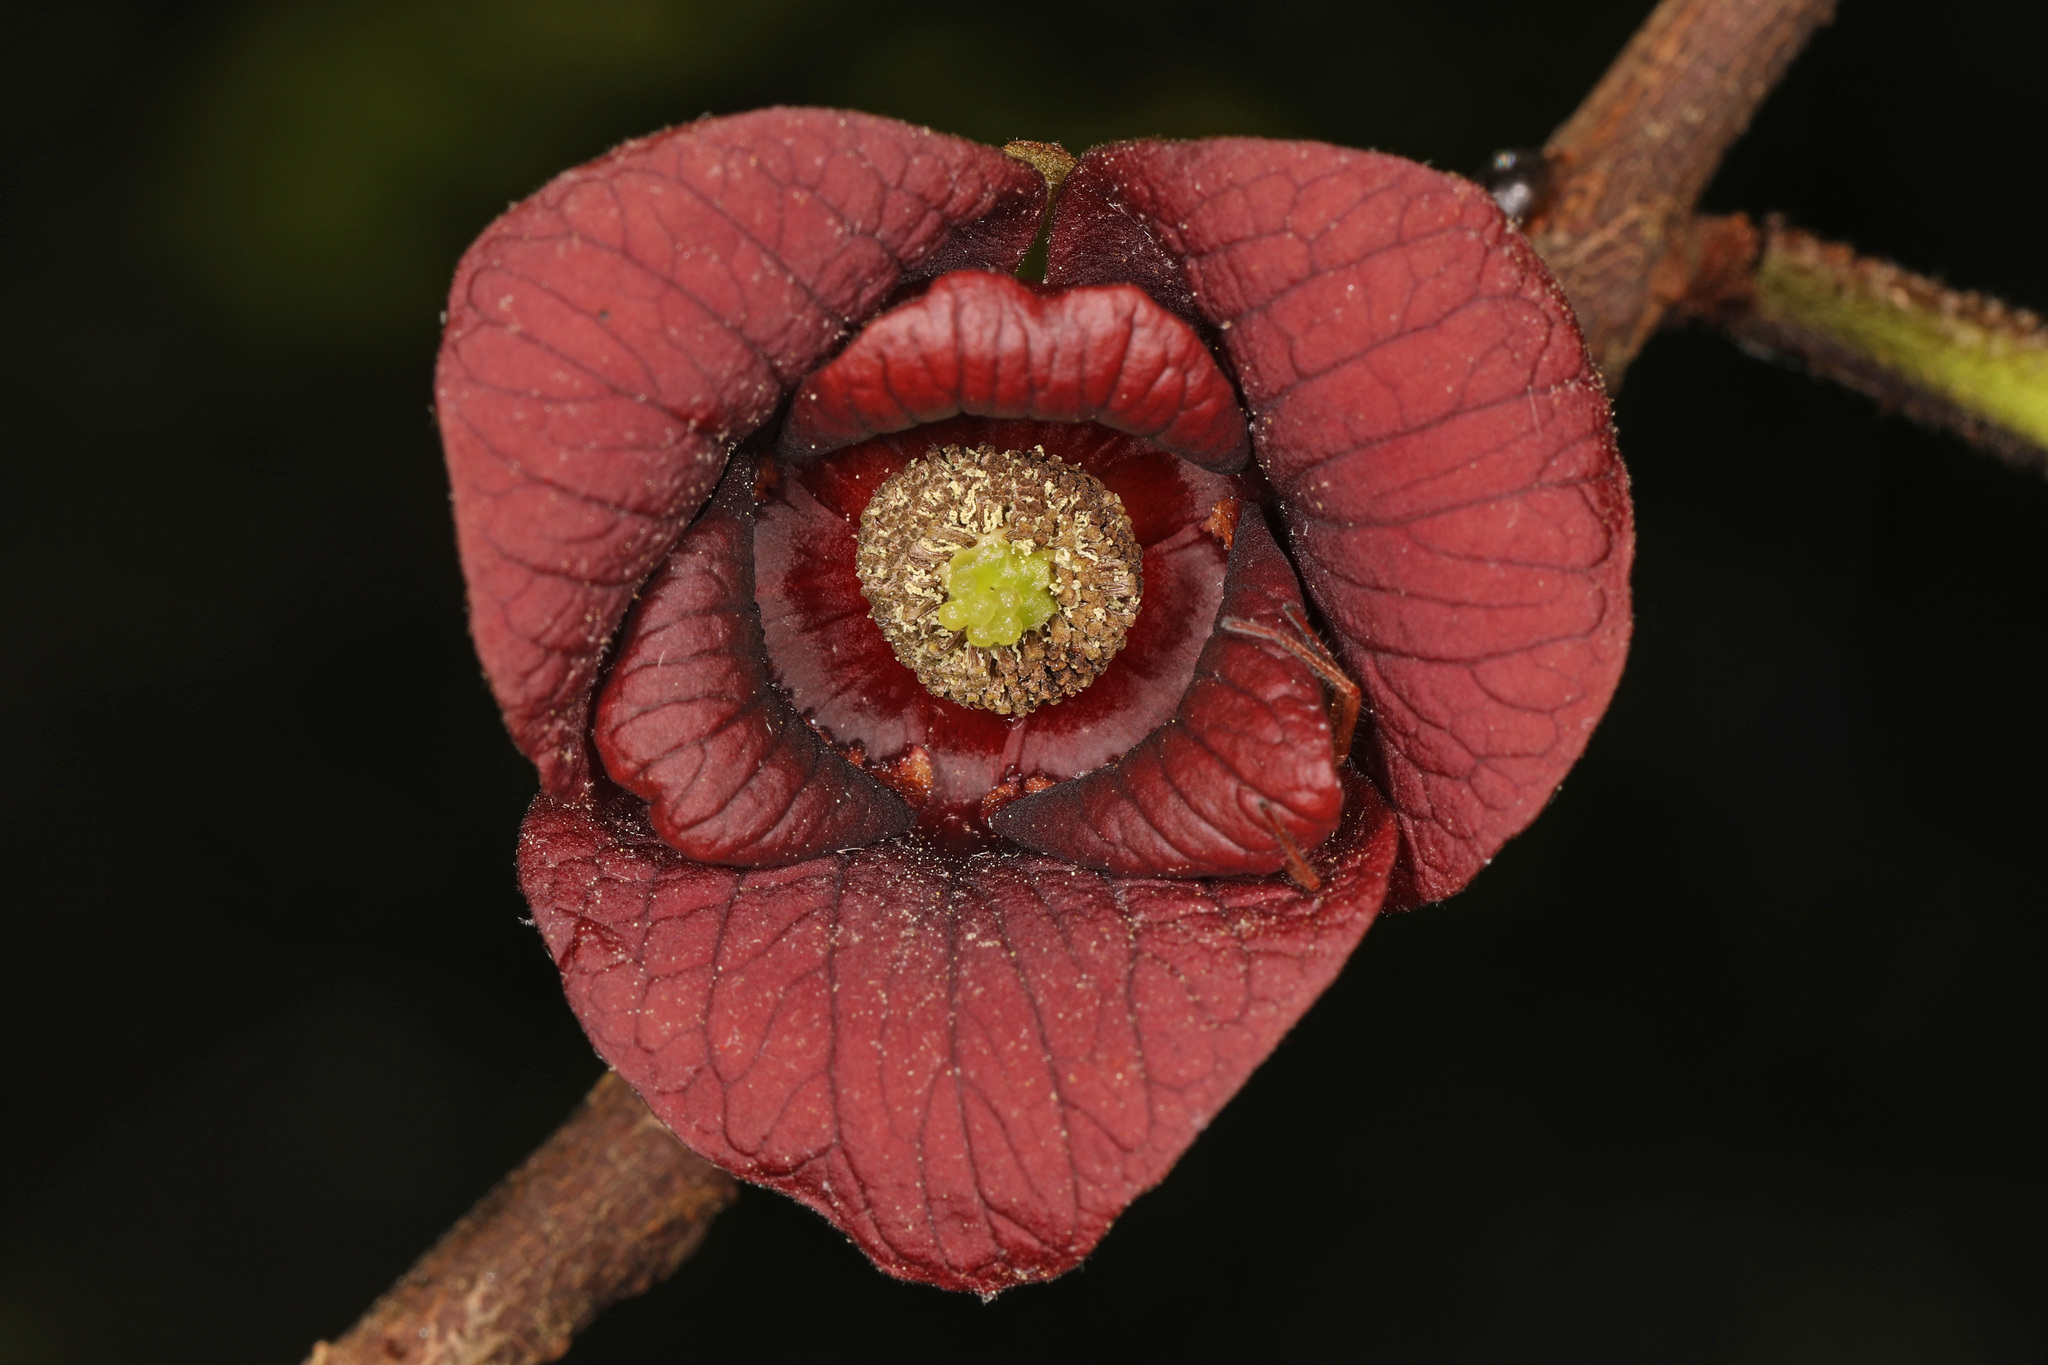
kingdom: Plantae
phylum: Tracheophyta
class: Magnoliopsida
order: Magnoliales
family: Annonaceae
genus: Asimina
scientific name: Asimina triloba
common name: Dog-banana
